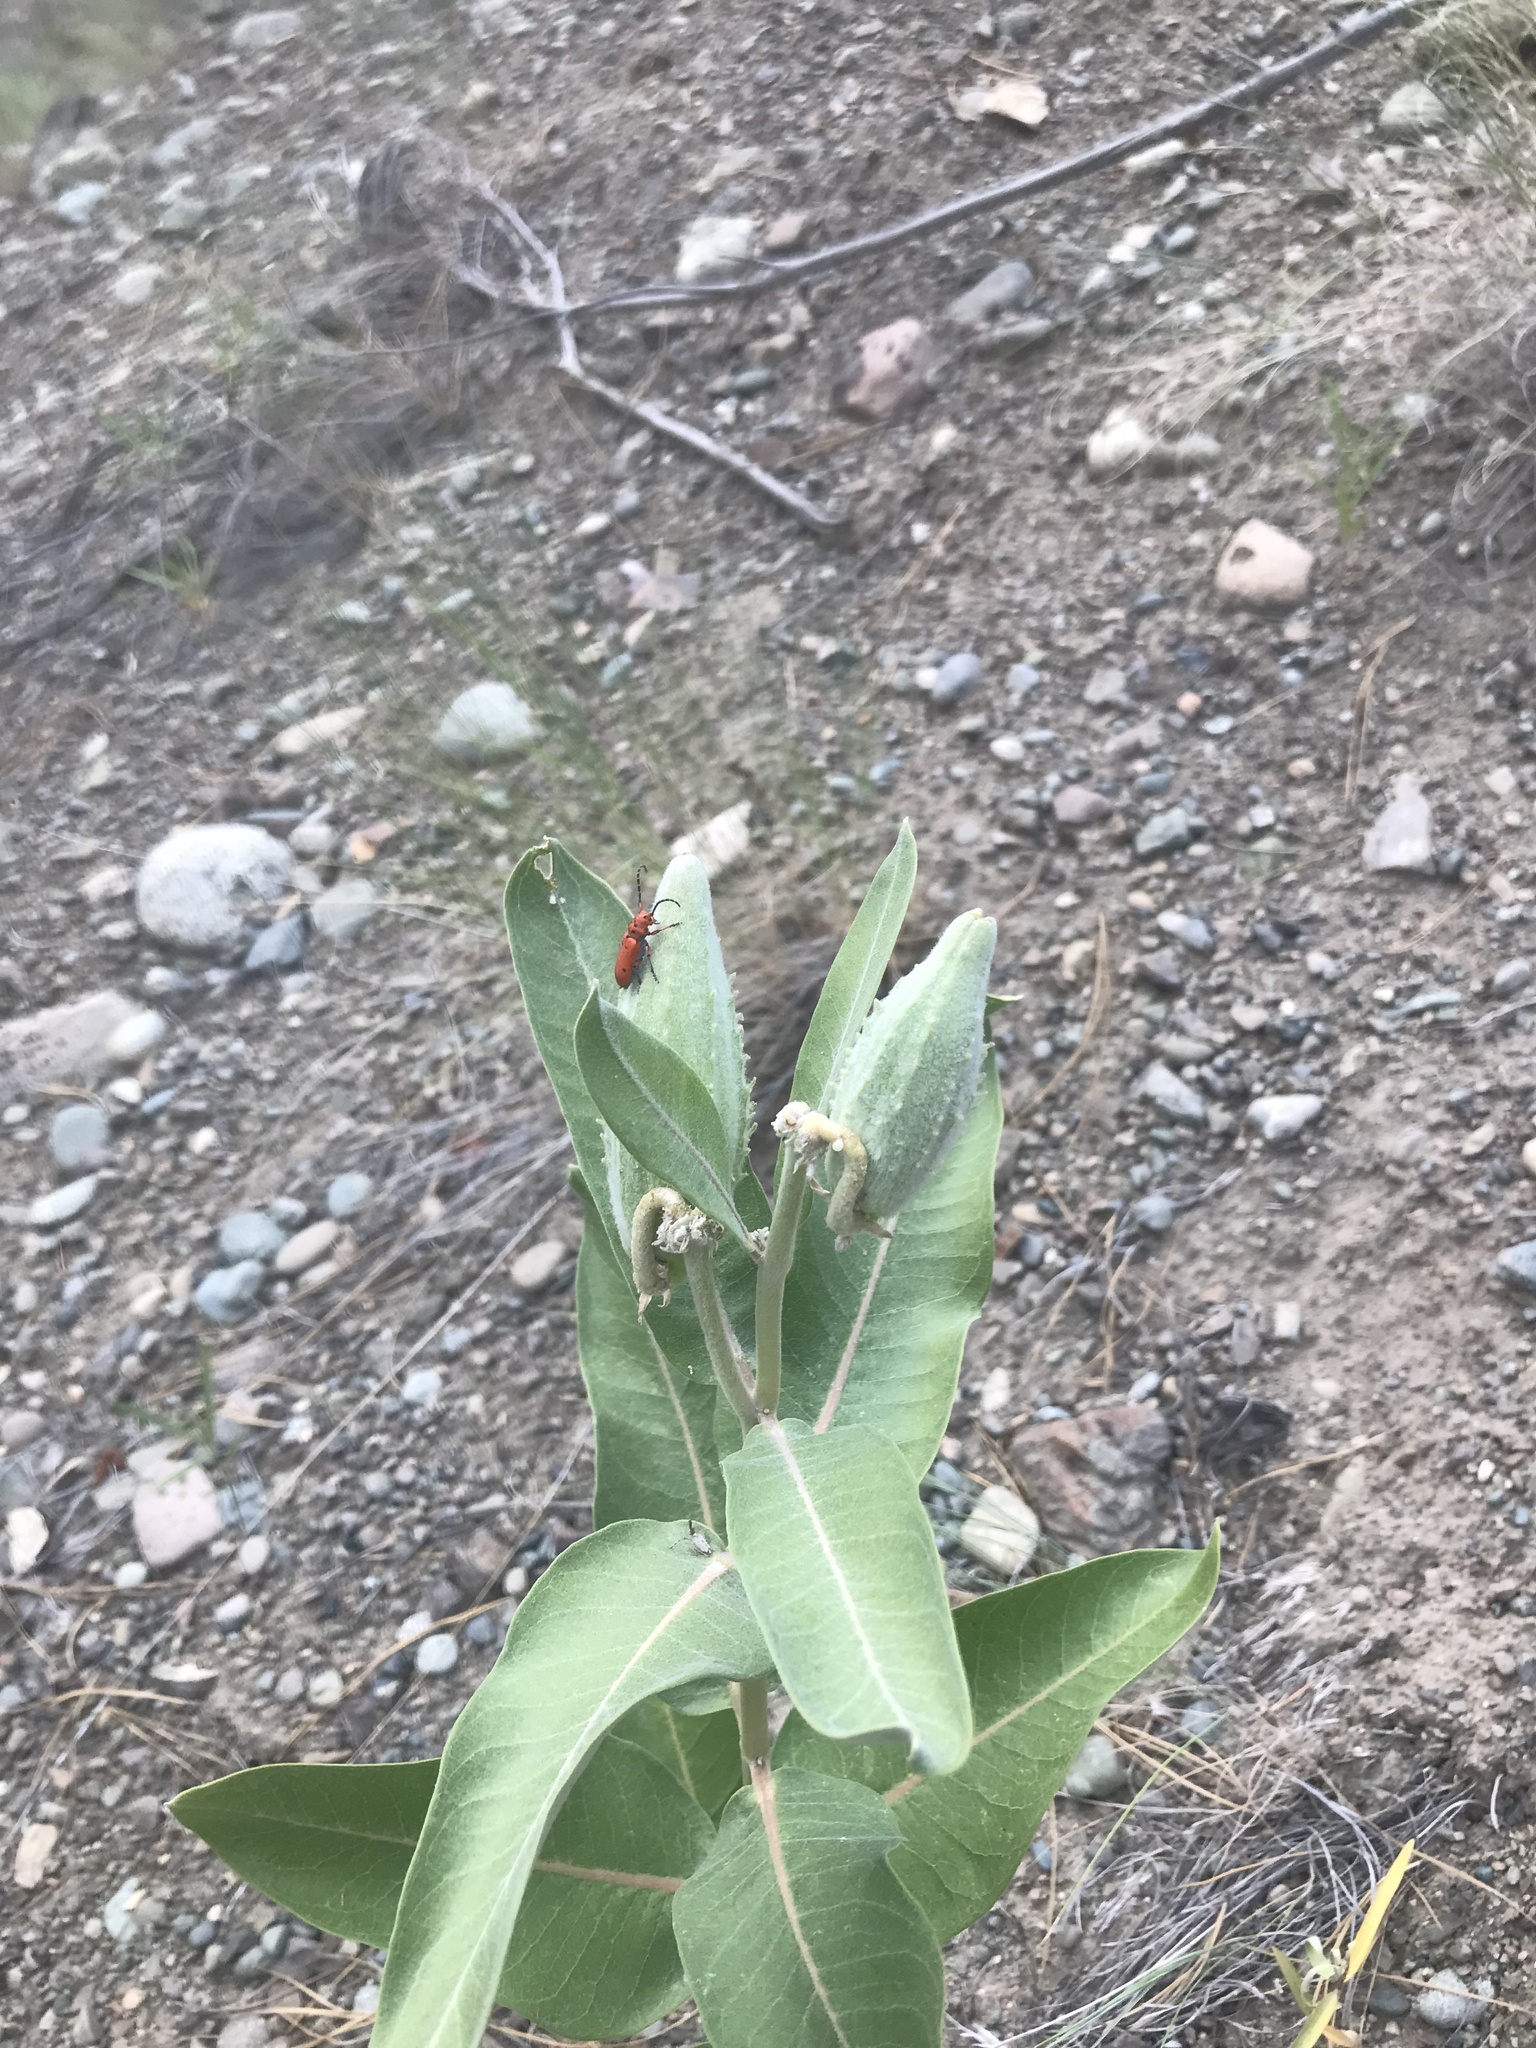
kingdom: Animalia
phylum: Arthropoda
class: Insecta
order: Coleoptera
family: Cerambycidae
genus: Tetraopes
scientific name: Tetraopes femoratus
